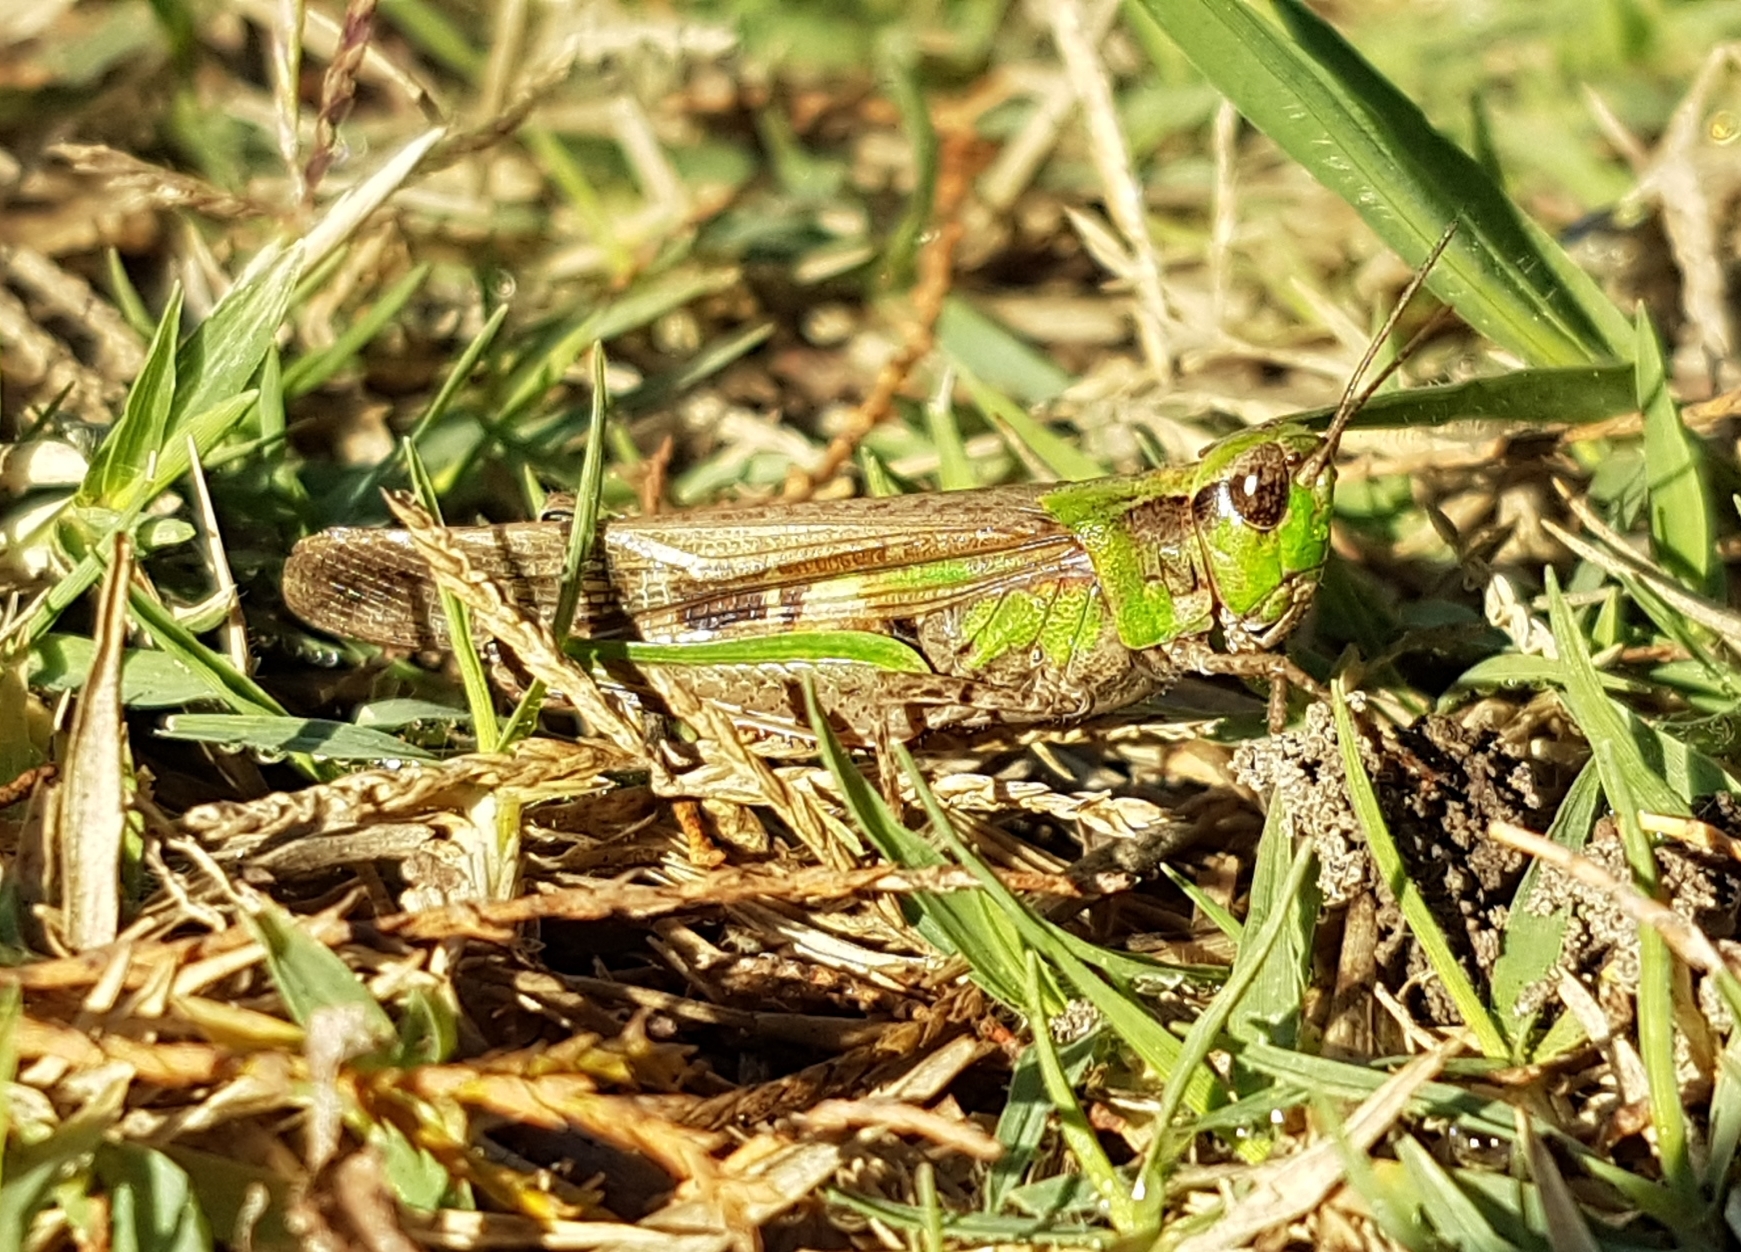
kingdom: Animalia
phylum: Arthropoda
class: Insecta
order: Orthoptera
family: Acrididae
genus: Aiolopus
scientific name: Aiolopus puissanti
